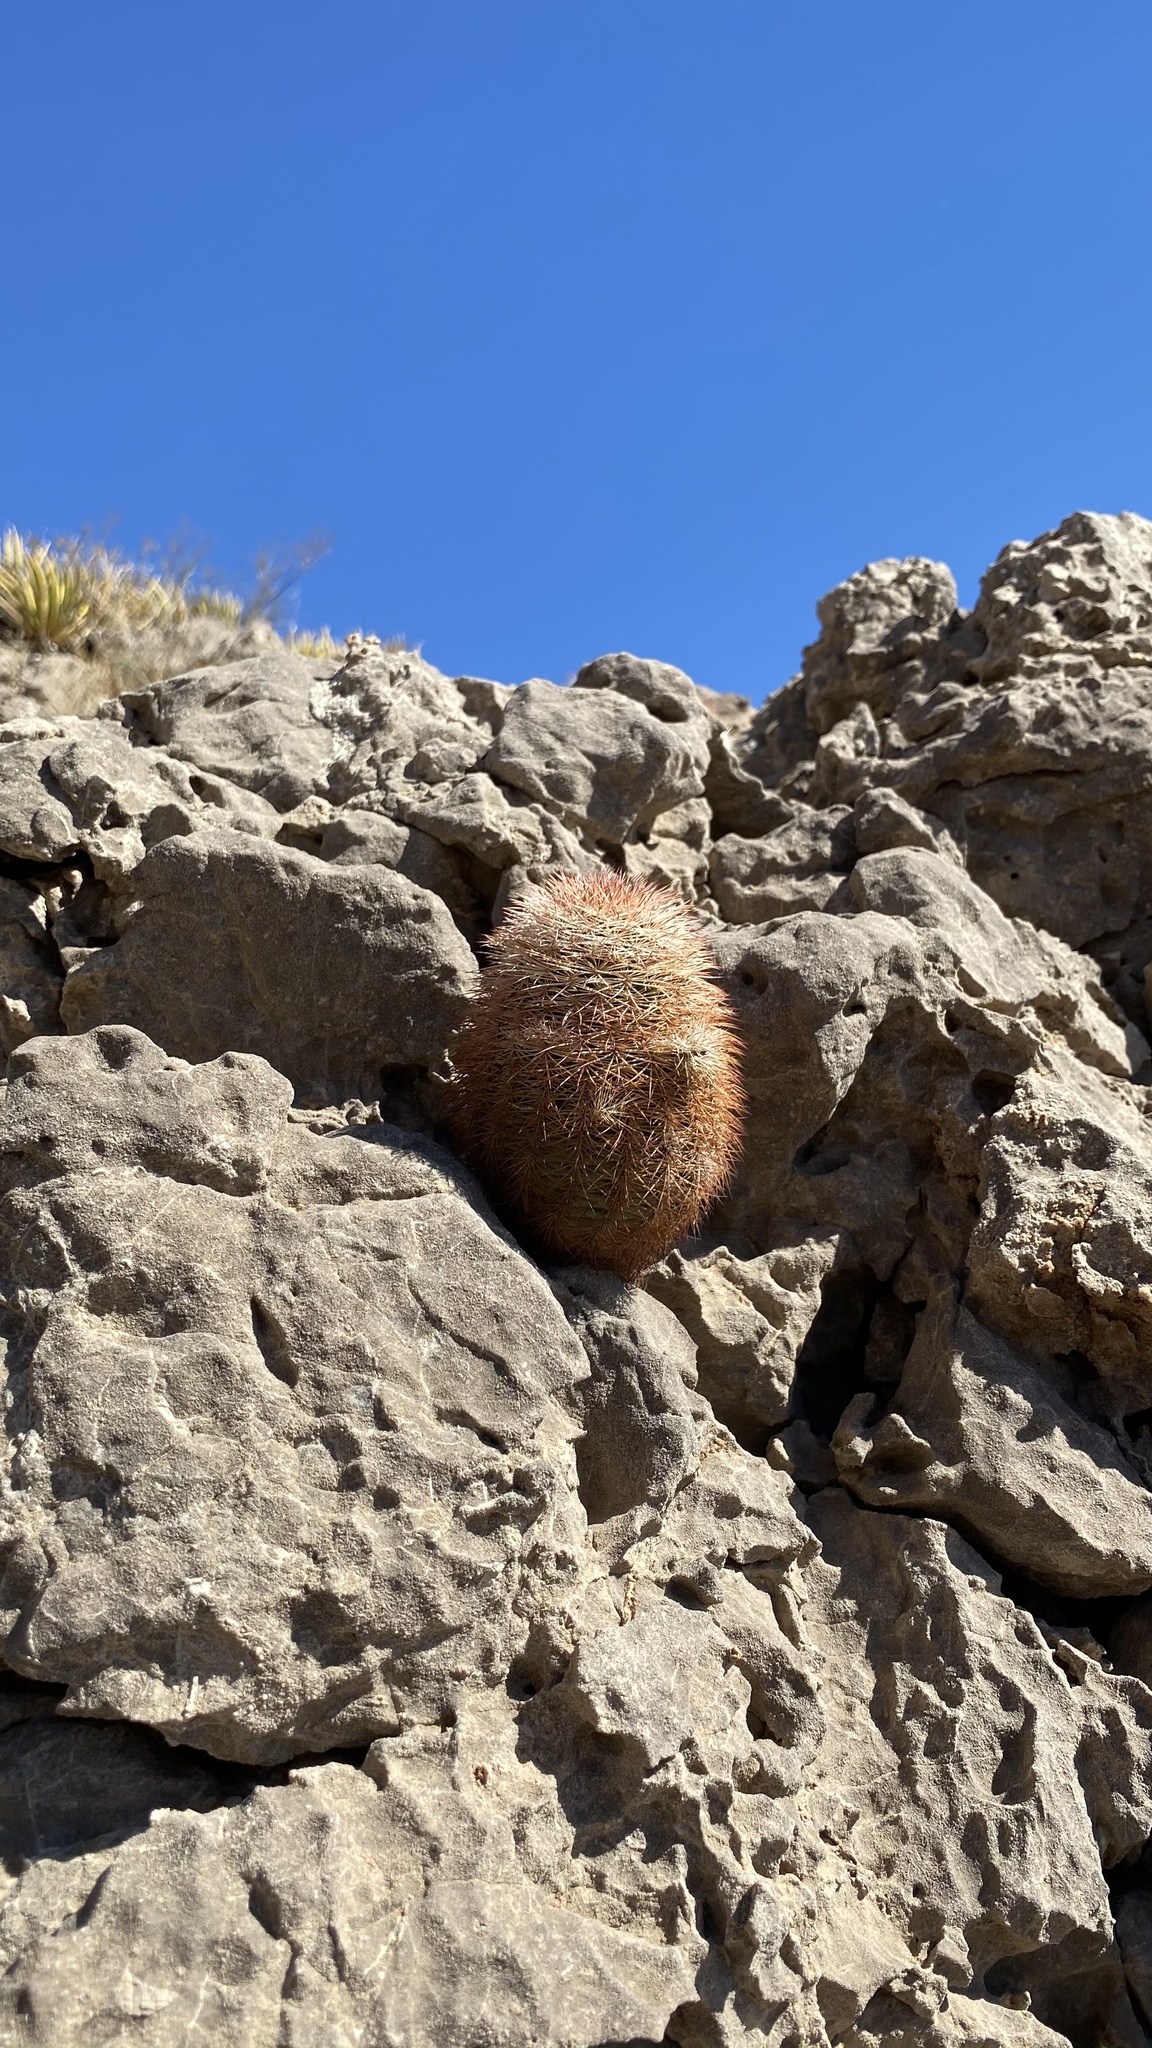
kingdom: Plantae
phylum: Tracheophyta
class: Magnoliopsida
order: Caryophyllales
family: Cactaceae
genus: Echinocereus
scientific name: Echinocereus dasyacanthus
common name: Spiny hedgehog cactus
